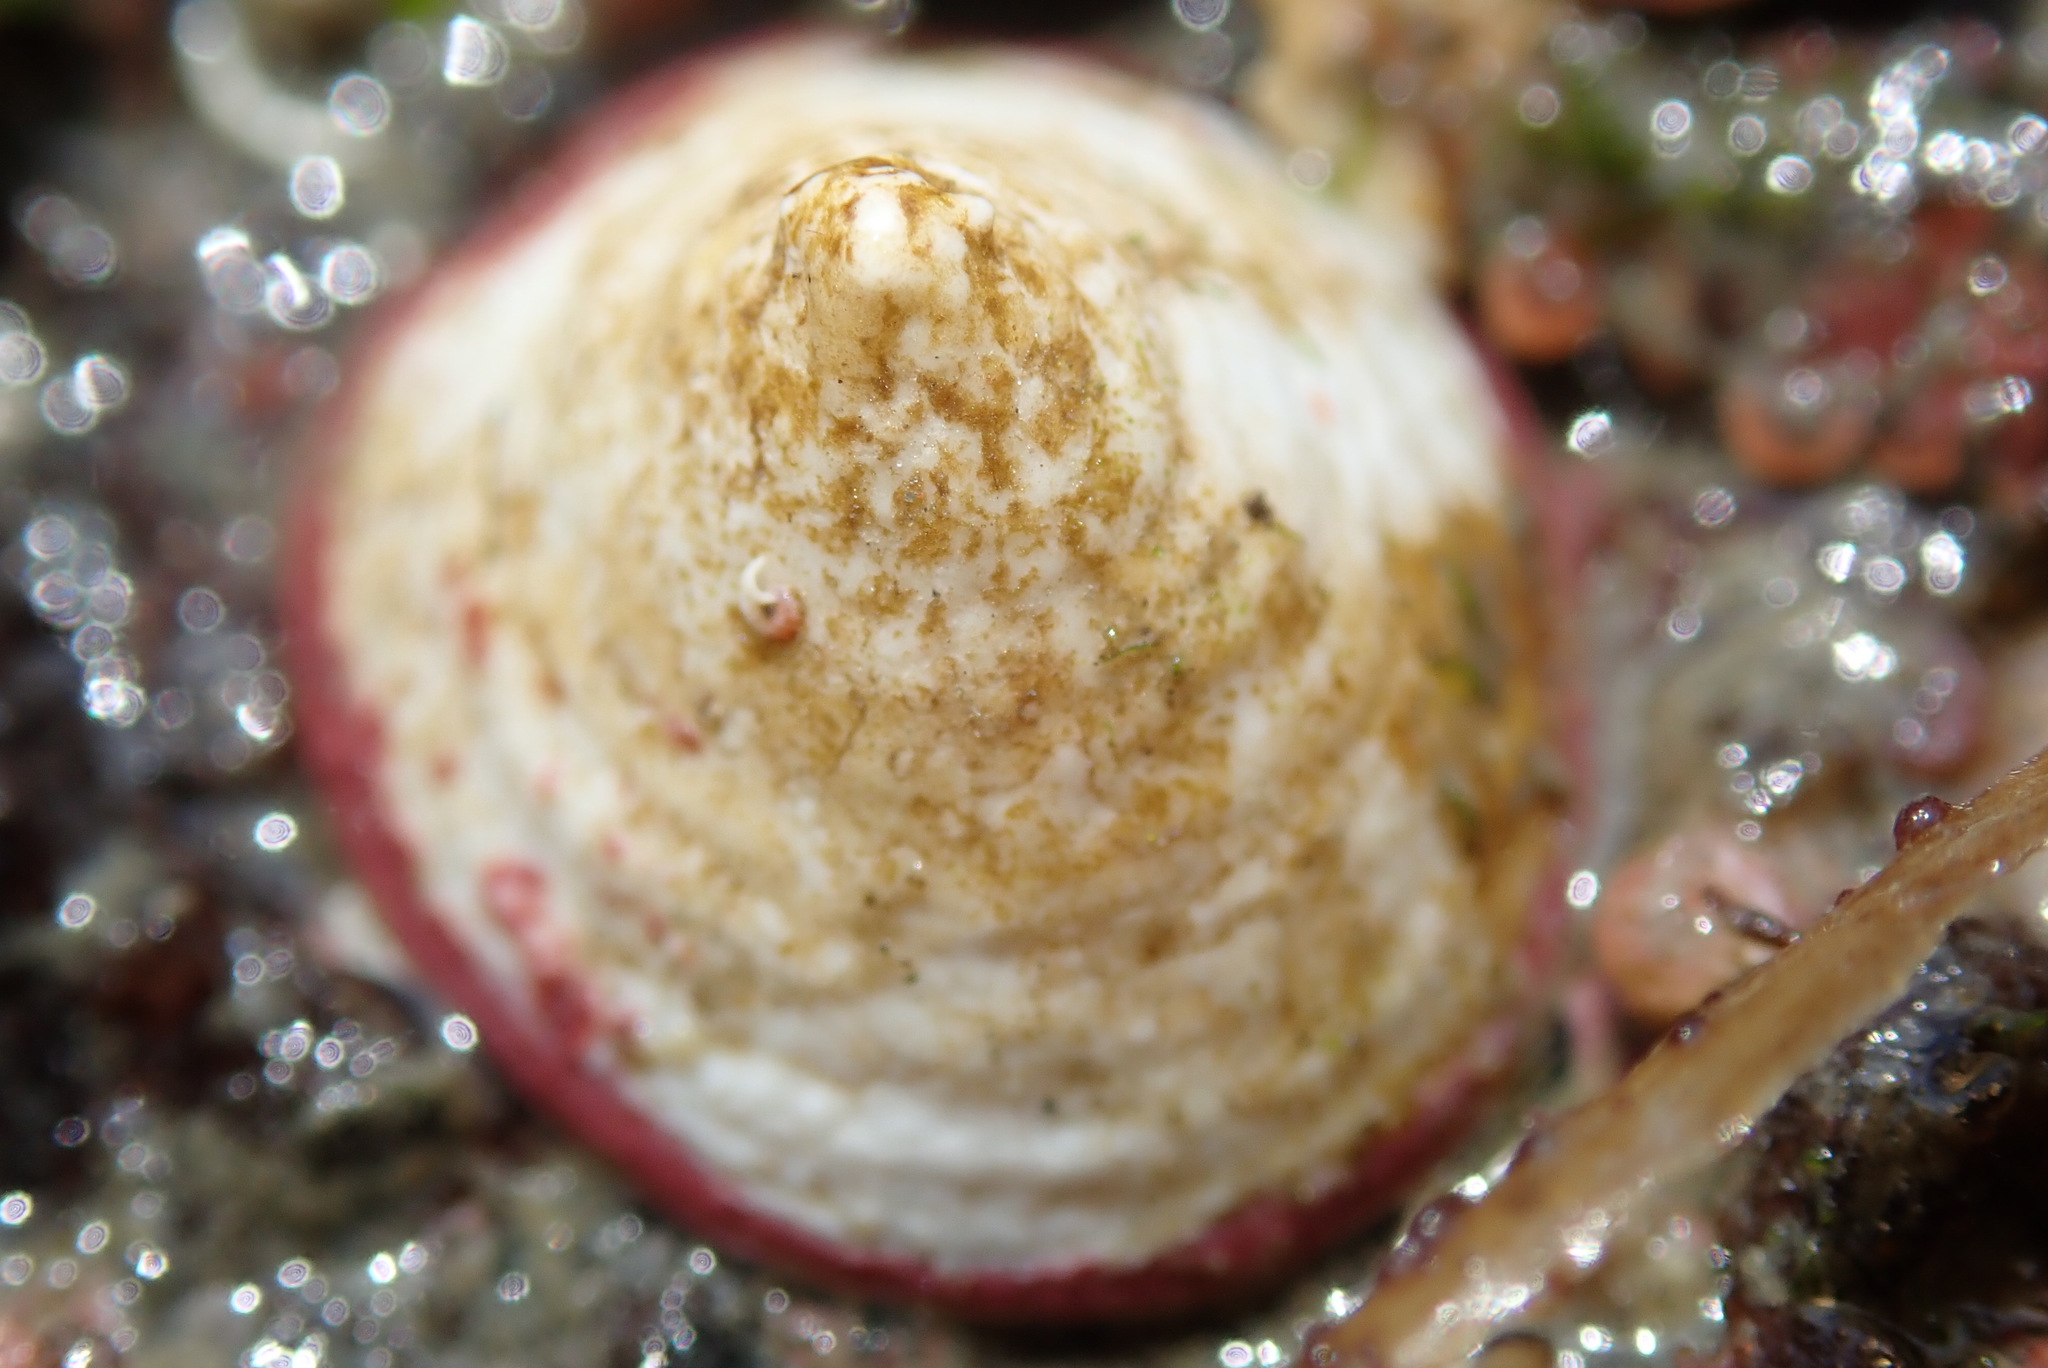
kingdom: Animalia
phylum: Mollusca
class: Gastropoda
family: Acmaeidae
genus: Acmaea
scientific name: Acmaea mitra
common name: Pacific white cap limpet
